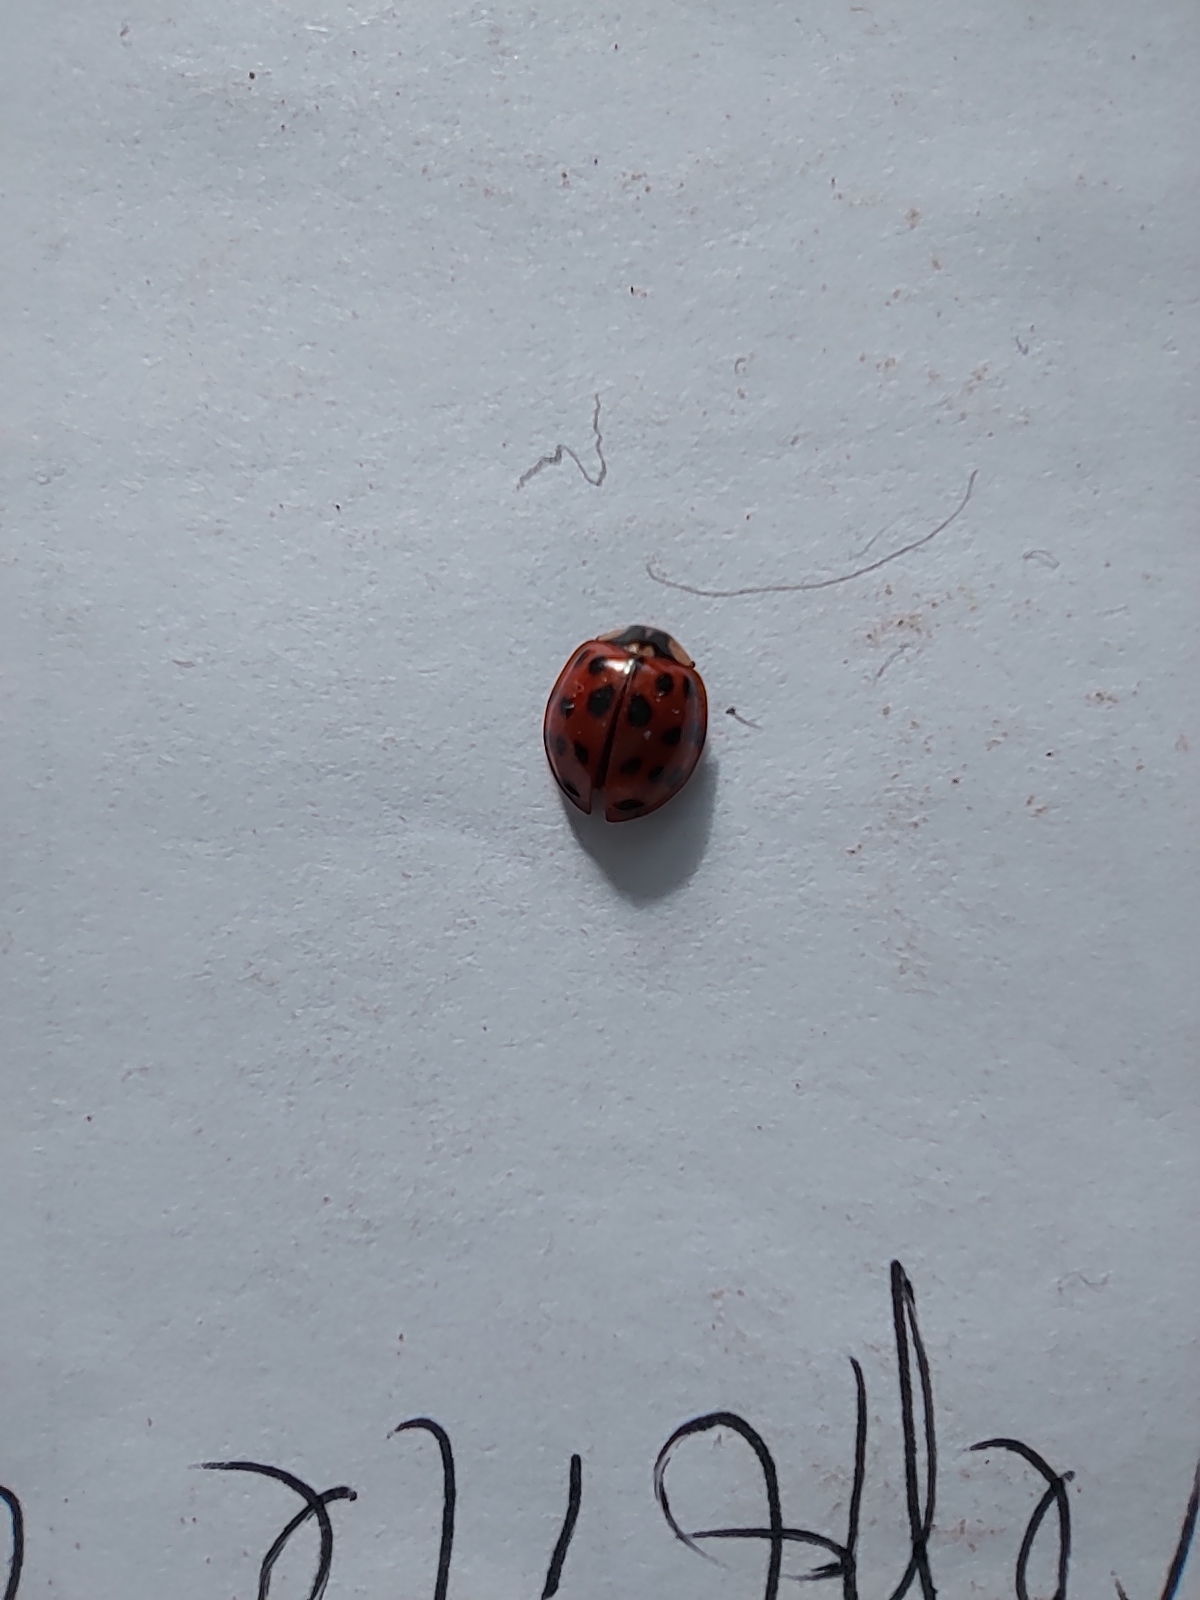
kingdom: Animalia
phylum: Arthropoda
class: Insecta
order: Coleoptera
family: Coccinellidae
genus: Harmonia
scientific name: Harmonia axyridis
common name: Harlequin ladybird
